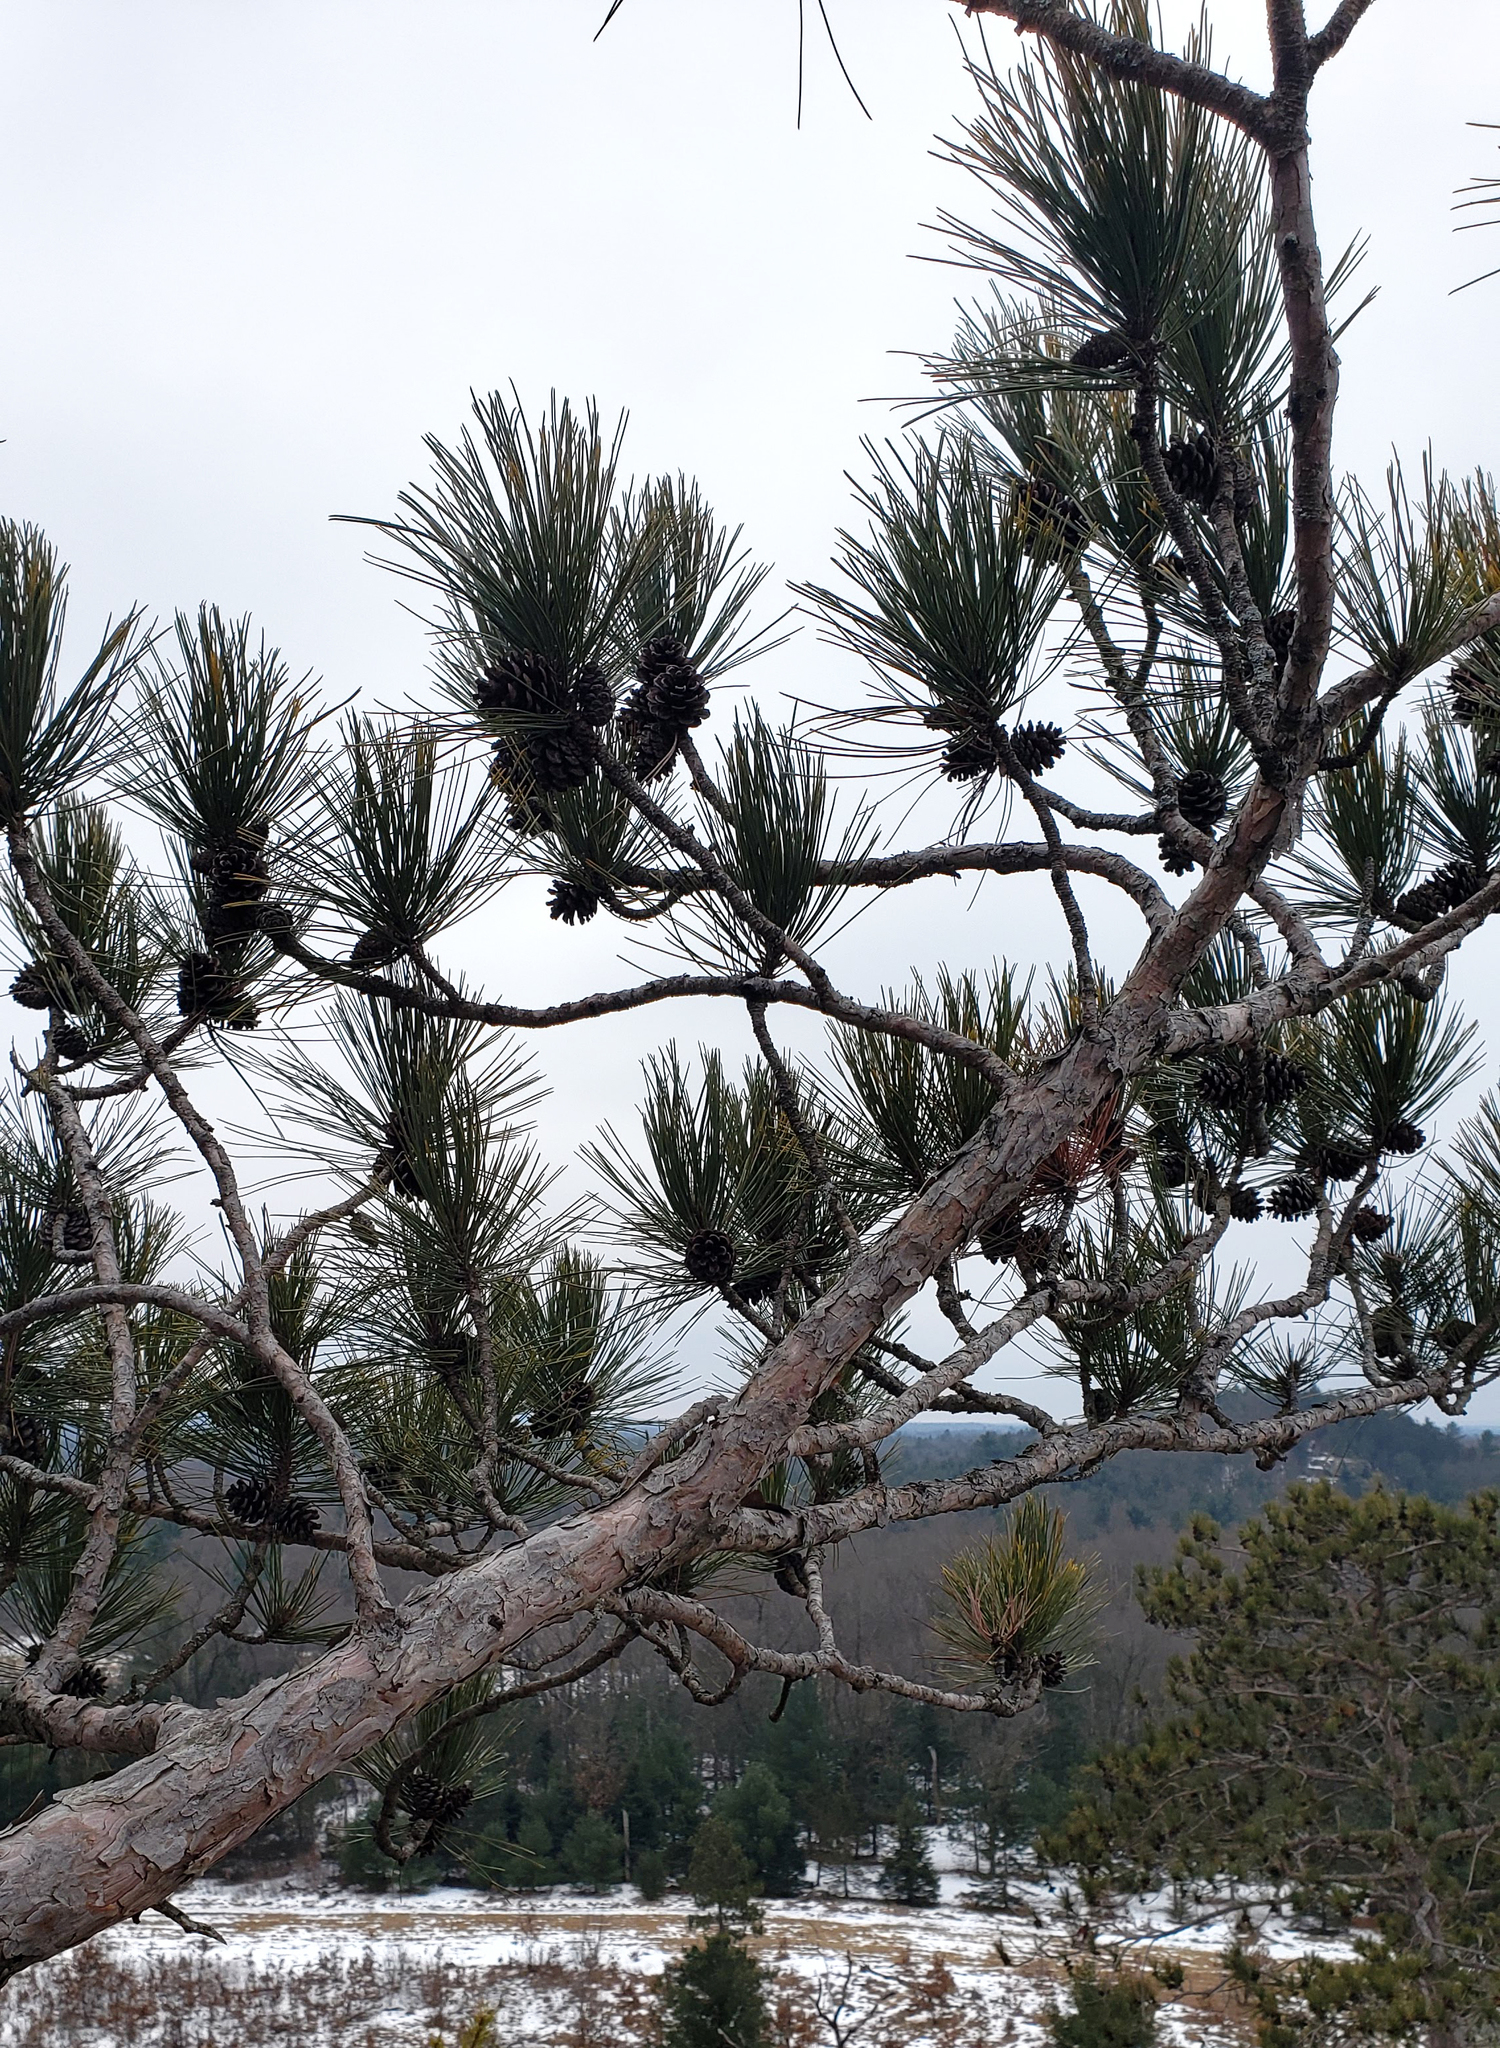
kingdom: Plantae
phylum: Tracheophyta
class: Pinopsida
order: Pinales
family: Pinaceae
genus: Pinus
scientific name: Pinus resinosa
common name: Norway pine
